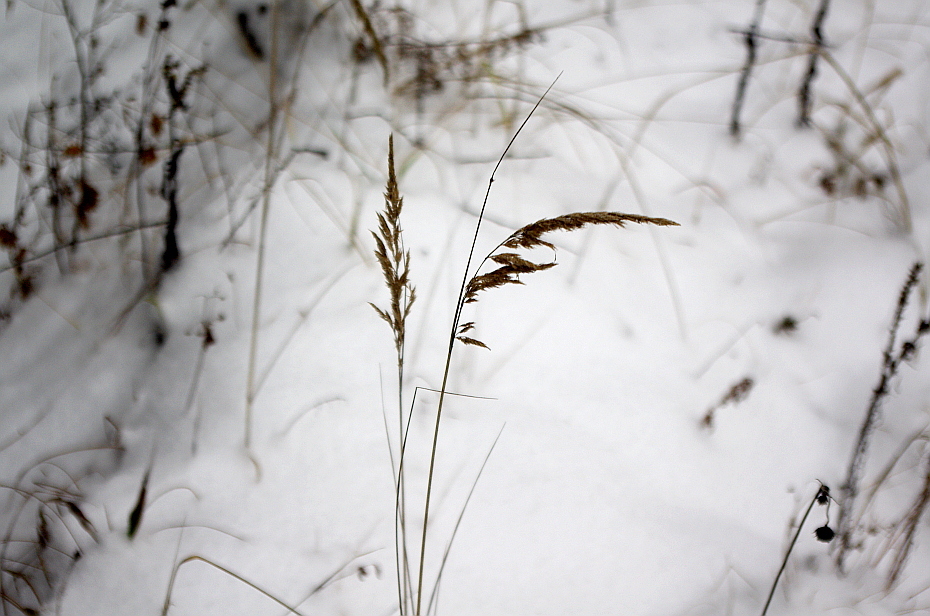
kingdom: Plantae
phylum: Tracheophyta
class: Liliopsida
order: Poales
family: Poaceae
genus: Calamagrostis
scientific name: Calamagrostis epigejos
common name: Wood small-reed
